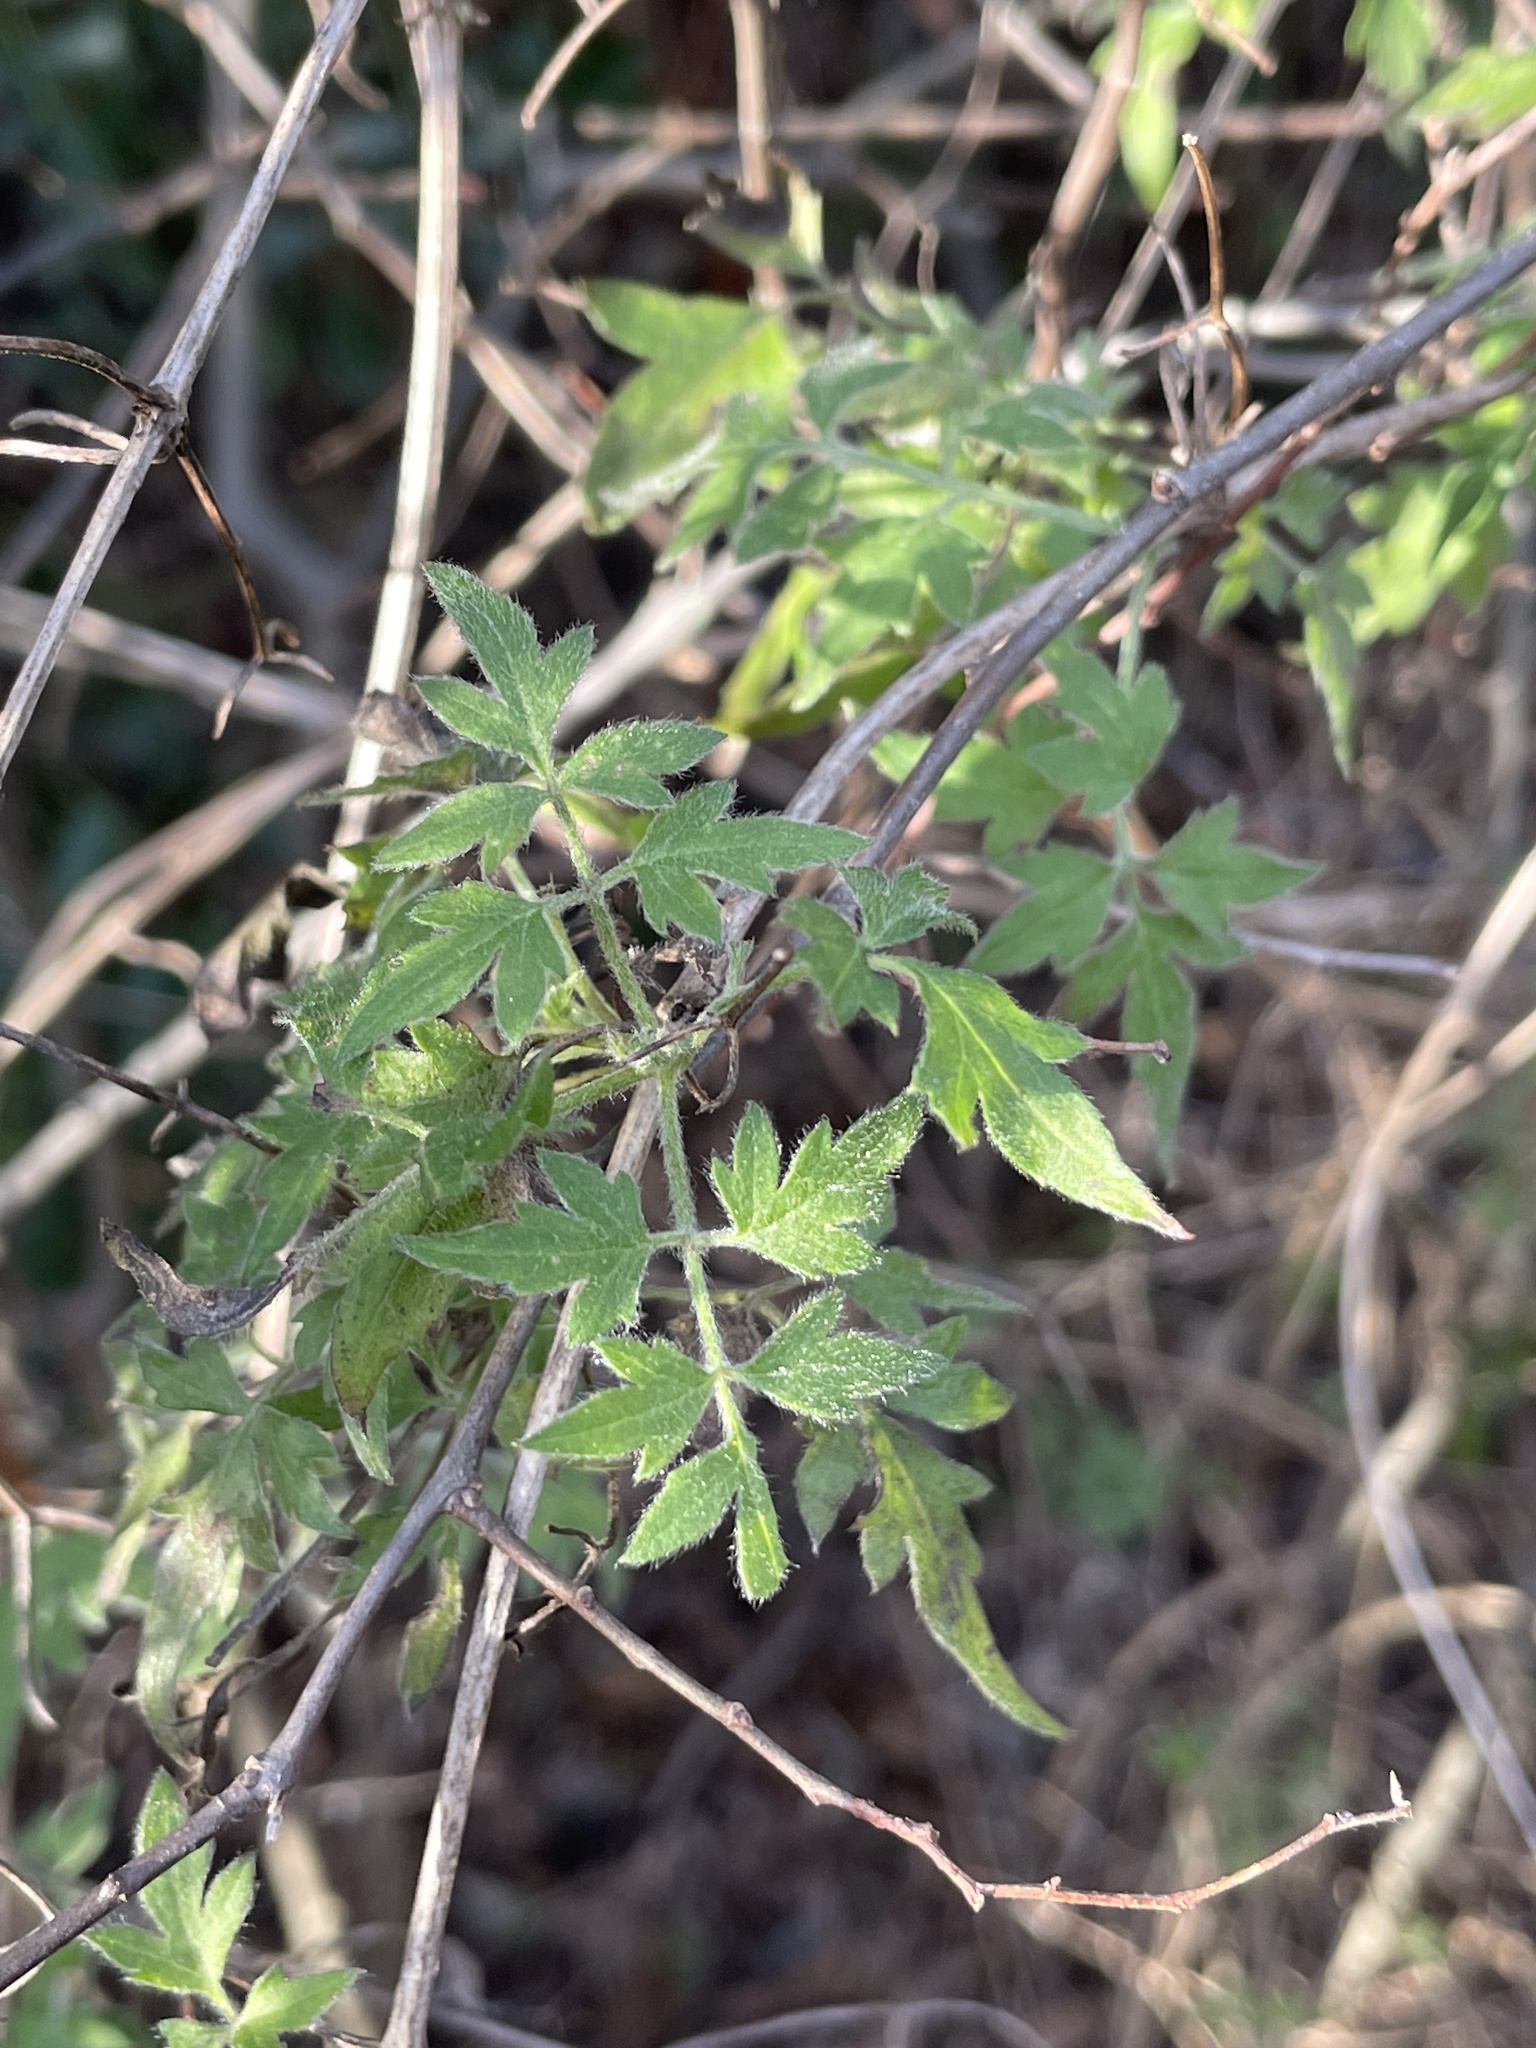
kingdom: Plantae
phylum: Tracheophyta
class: Magnoliopsida
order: Ranunculales
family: Ranunculaceae
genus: Clematis
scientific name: Clematis drummondii
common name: Texas virgin's bower
